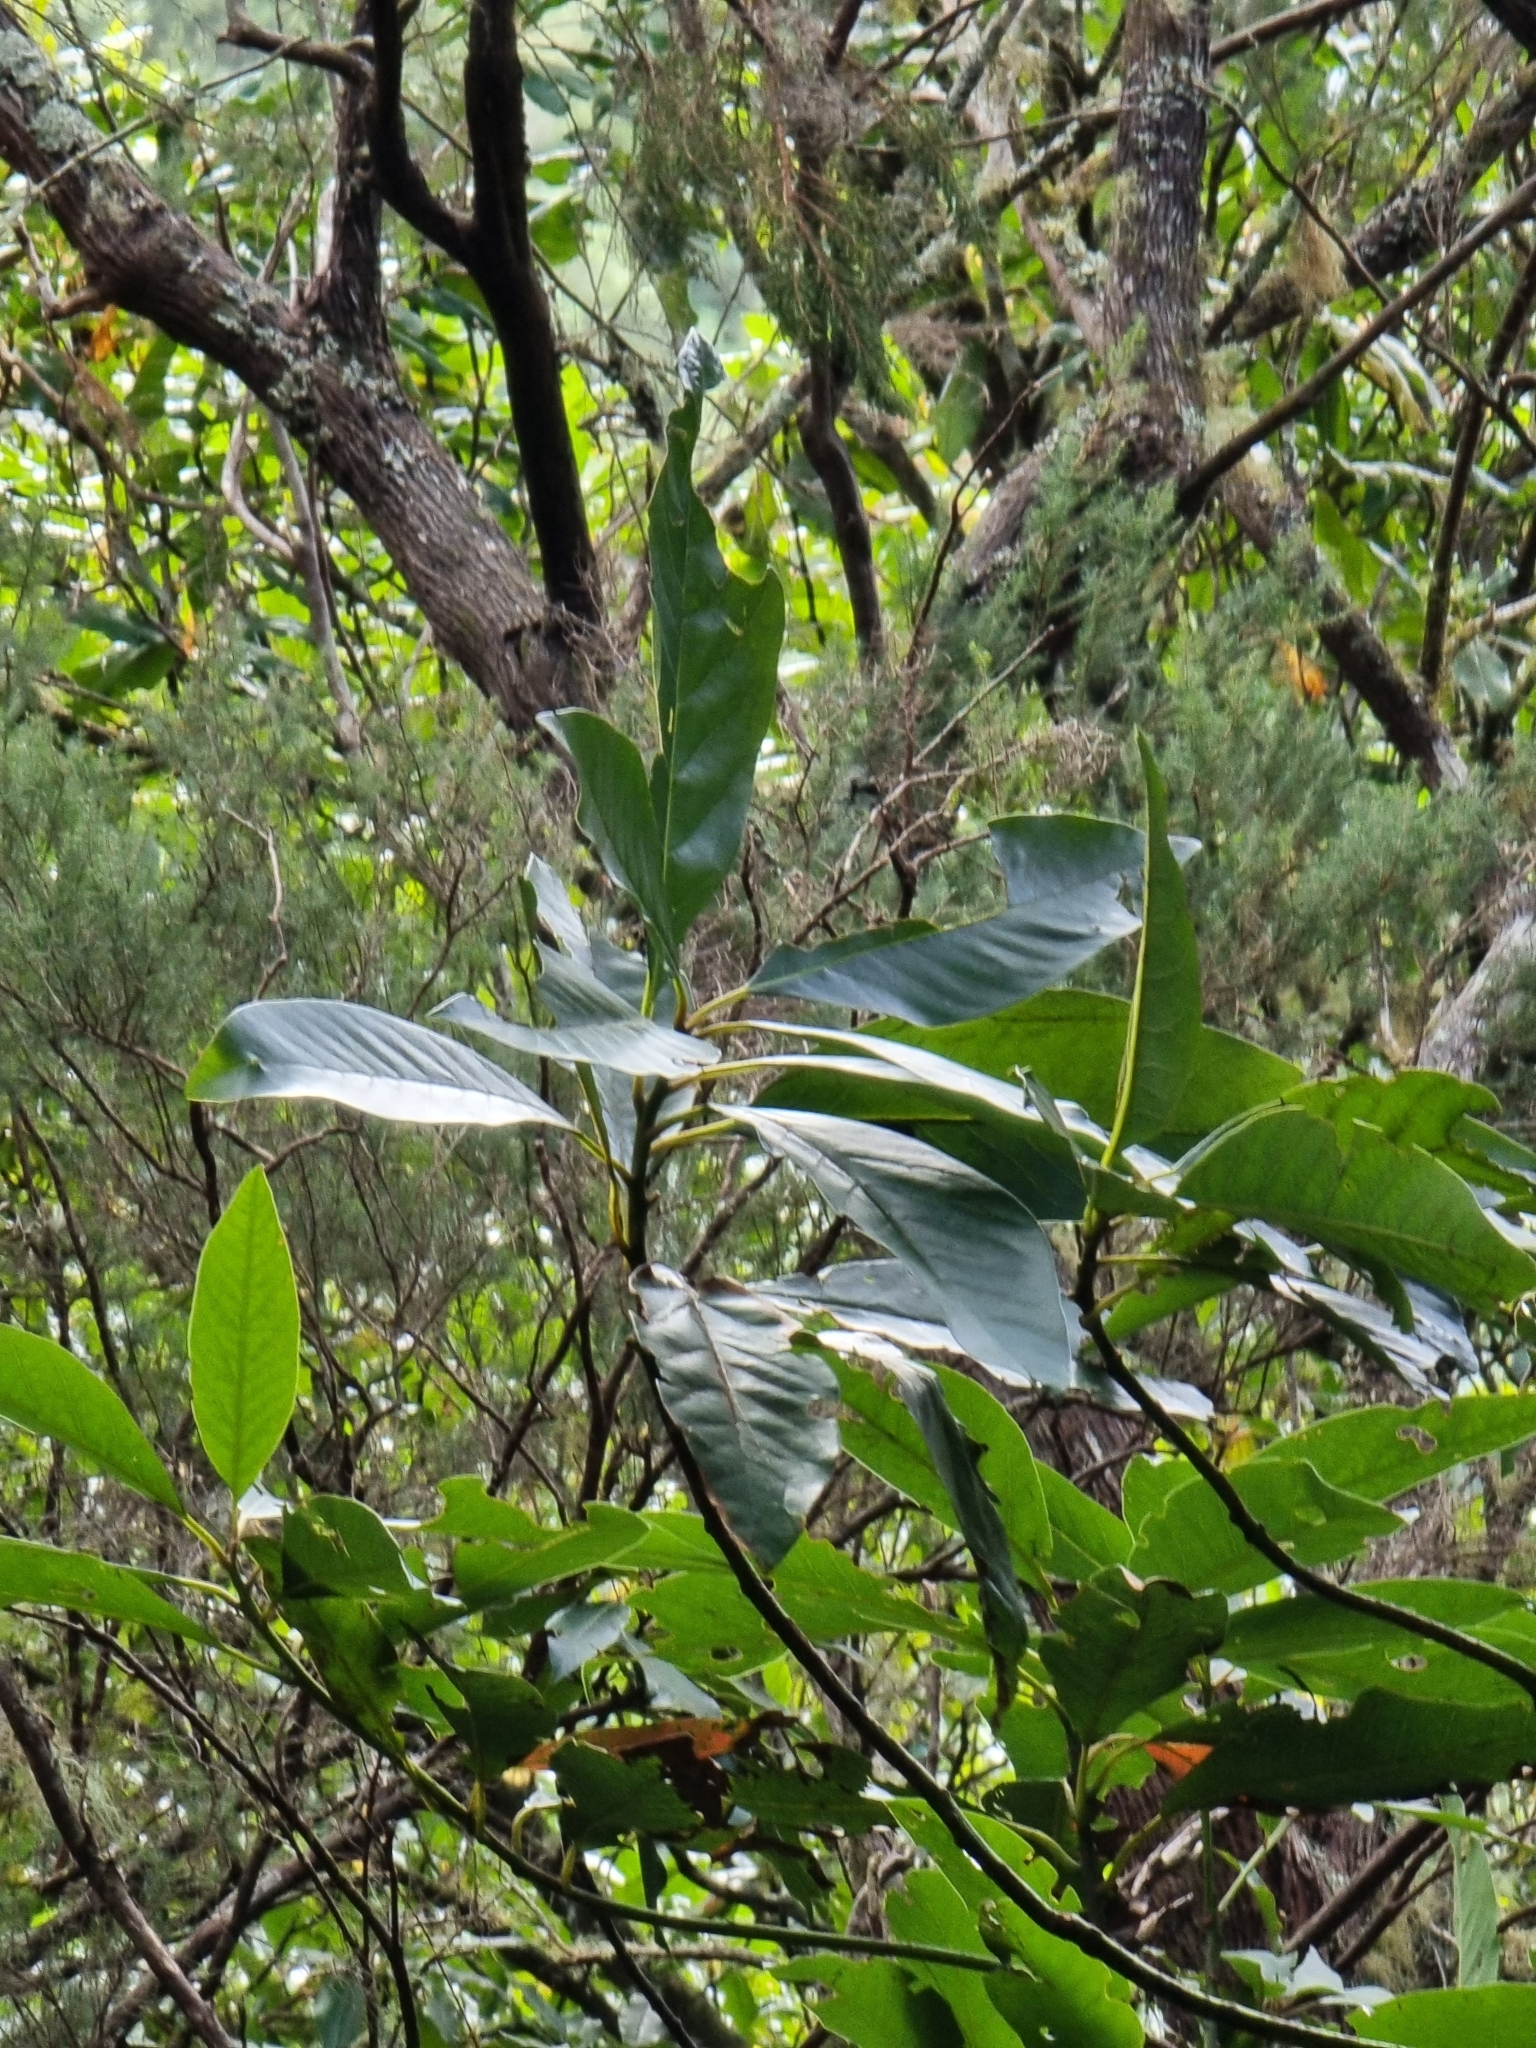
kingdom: Plantae
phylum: Tracheophyta
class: Magnoliopsida
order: Laurales
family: Lauraceae
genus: Persea
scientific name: Persea indica
